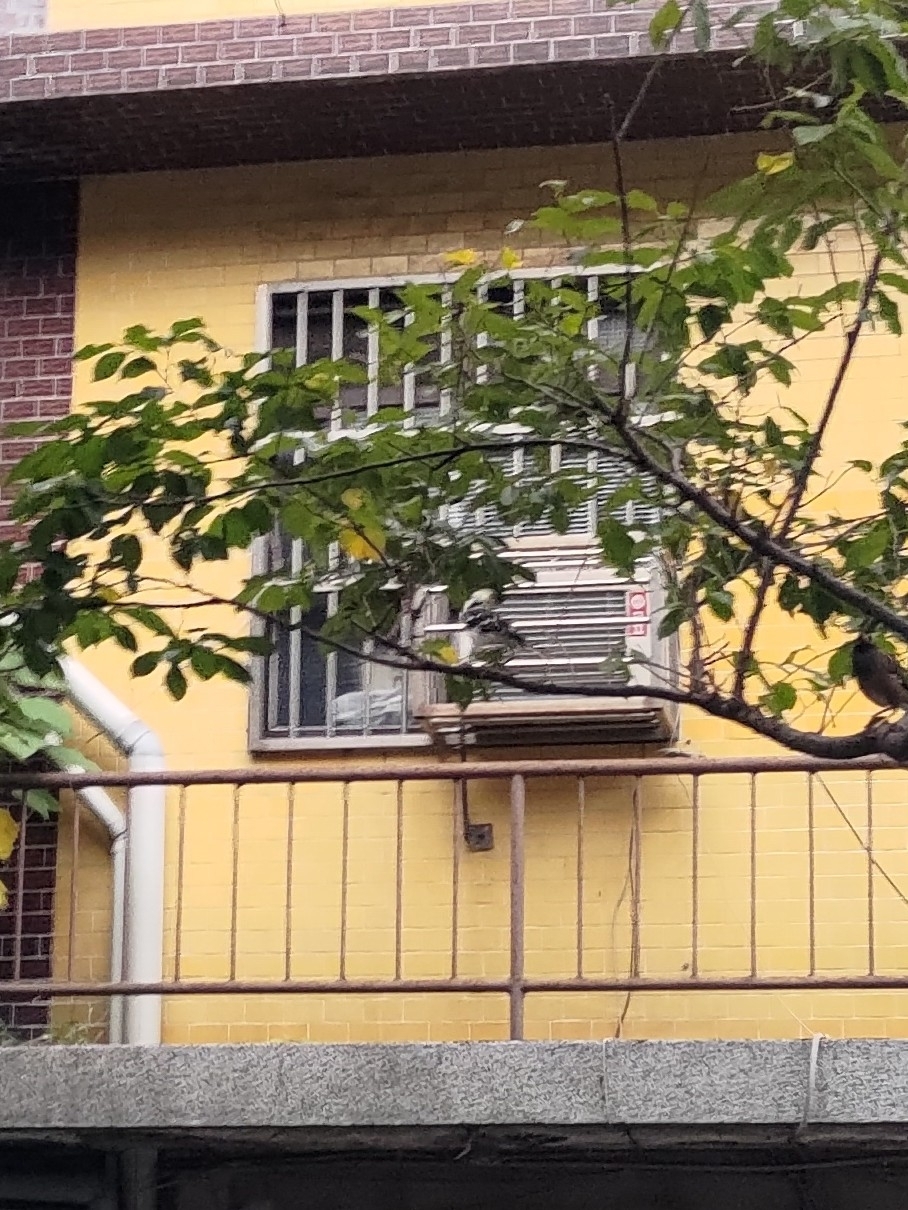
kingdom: Animalia
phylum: Chordata
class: Aves
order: Passeriformes
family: Sturnidae
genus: Gracupica
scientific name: Gracupica nigricollis
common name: Black-collared starling
